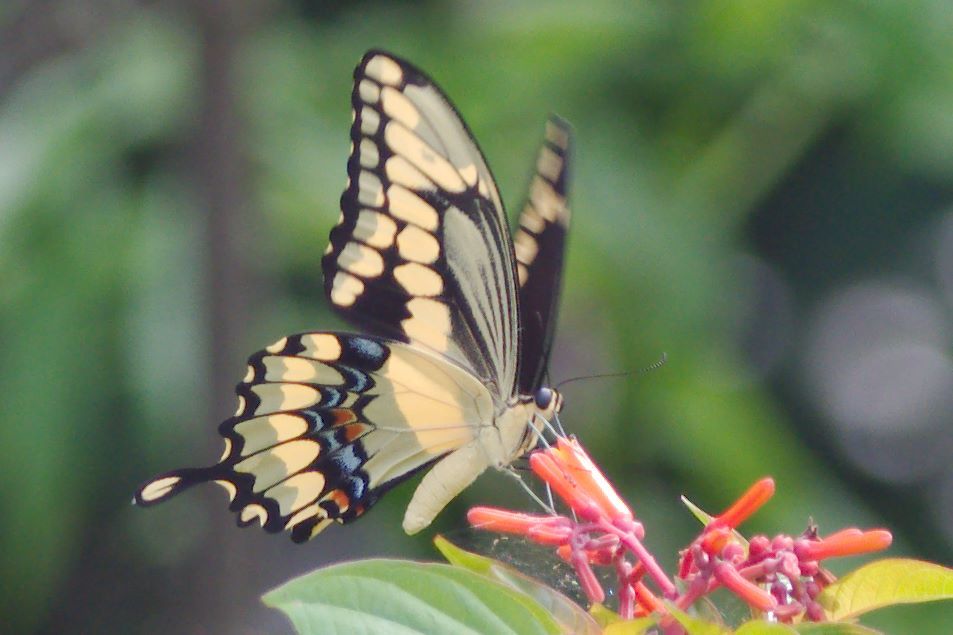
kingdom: Animalia
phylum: Arthropoda
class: Insecta
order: Lepidoptera
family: Papilionidae
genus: Papilio
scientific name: Papilio cresphontes
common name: Giant swallowtail
